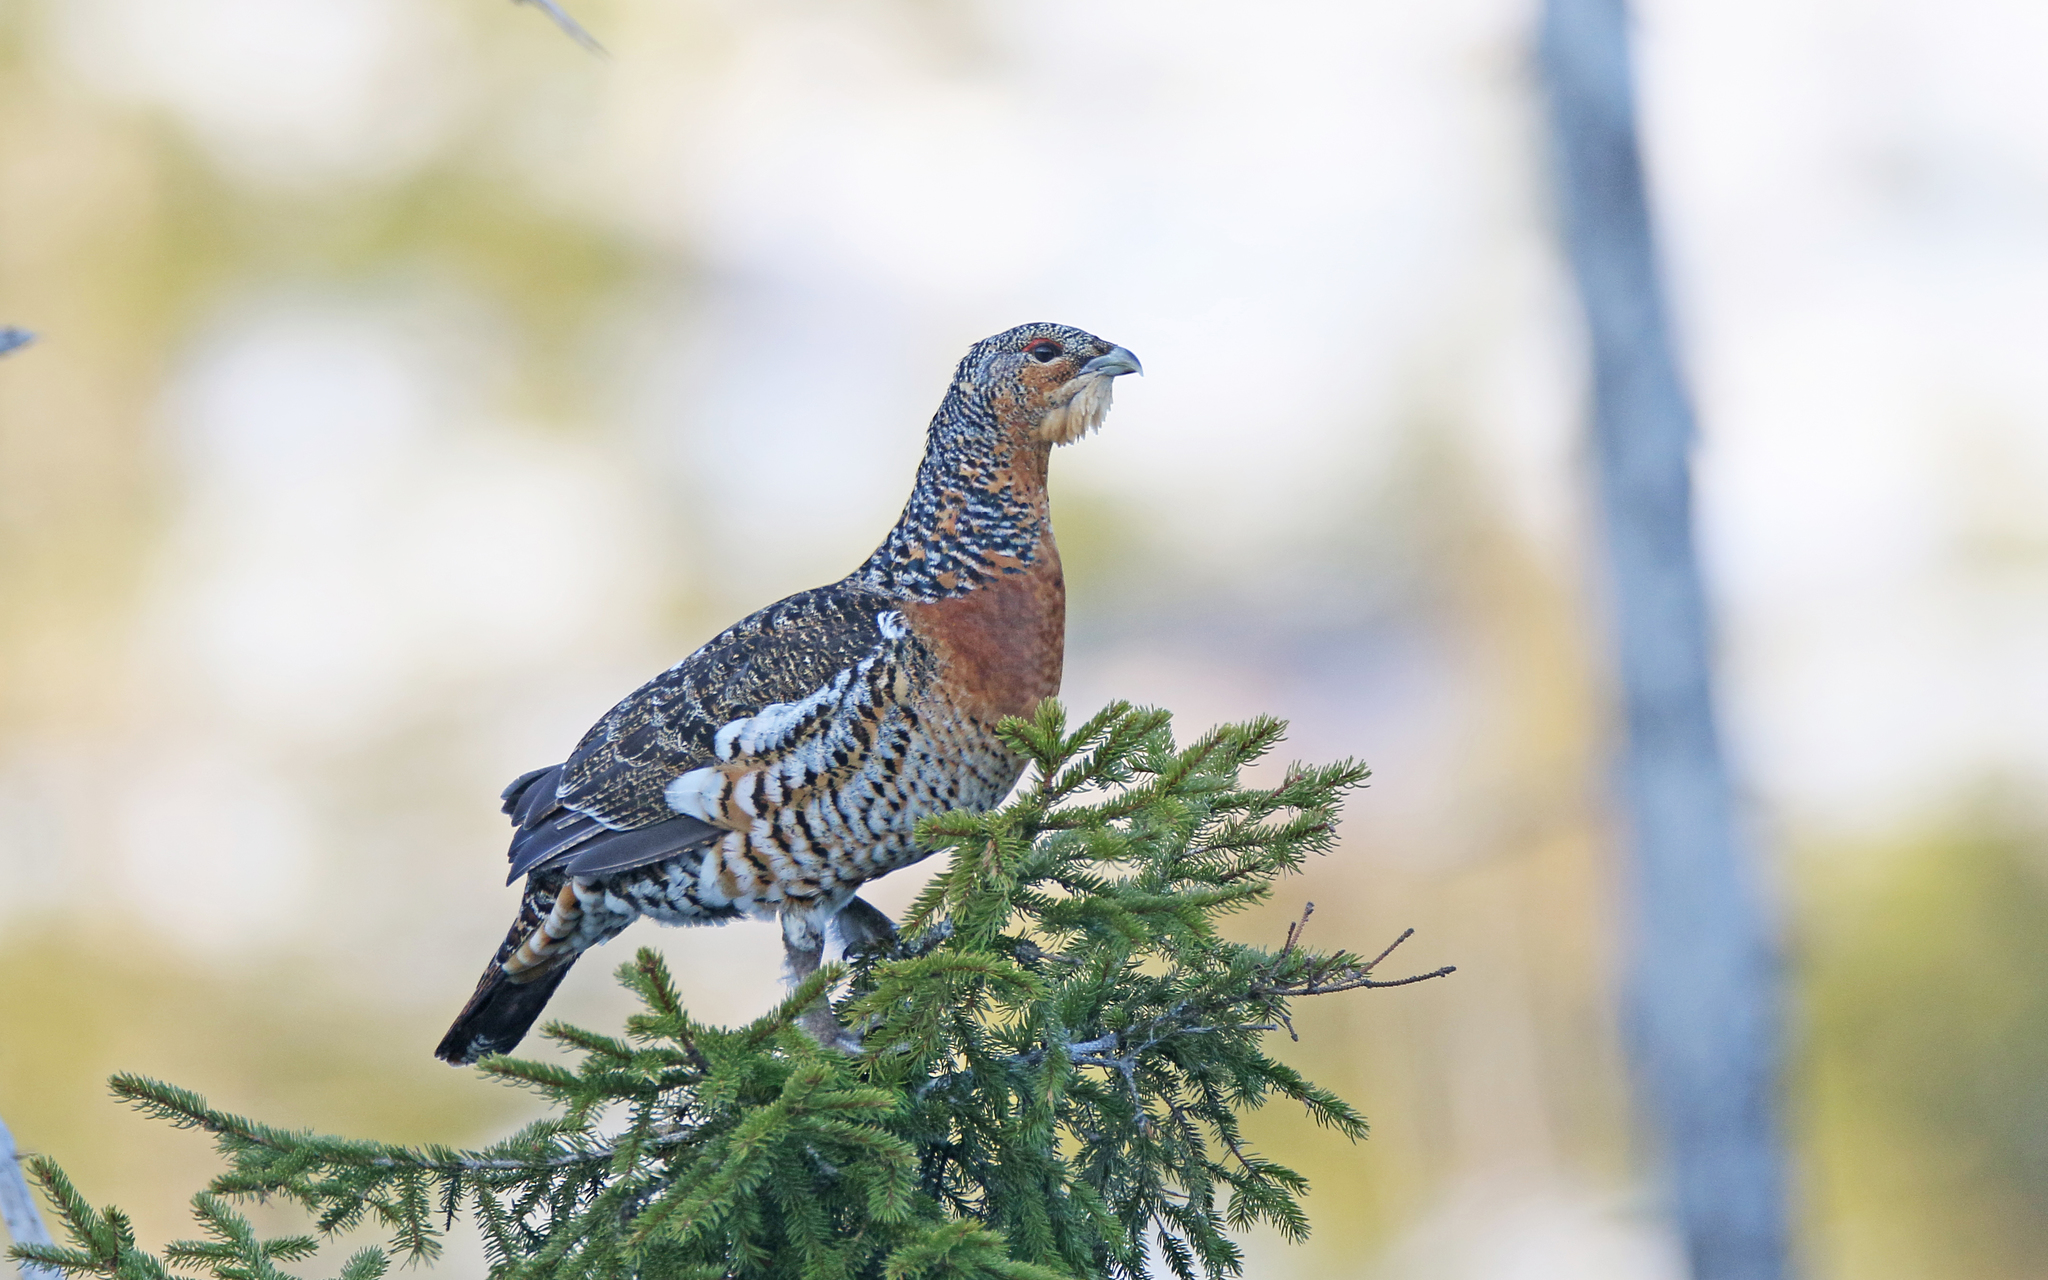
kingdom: Animalia
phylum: Chordata
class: Aves
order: Galliformes
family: Phasianidae
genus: Tetrao
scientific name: Tetrao urogallus
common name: Western capercaillie
